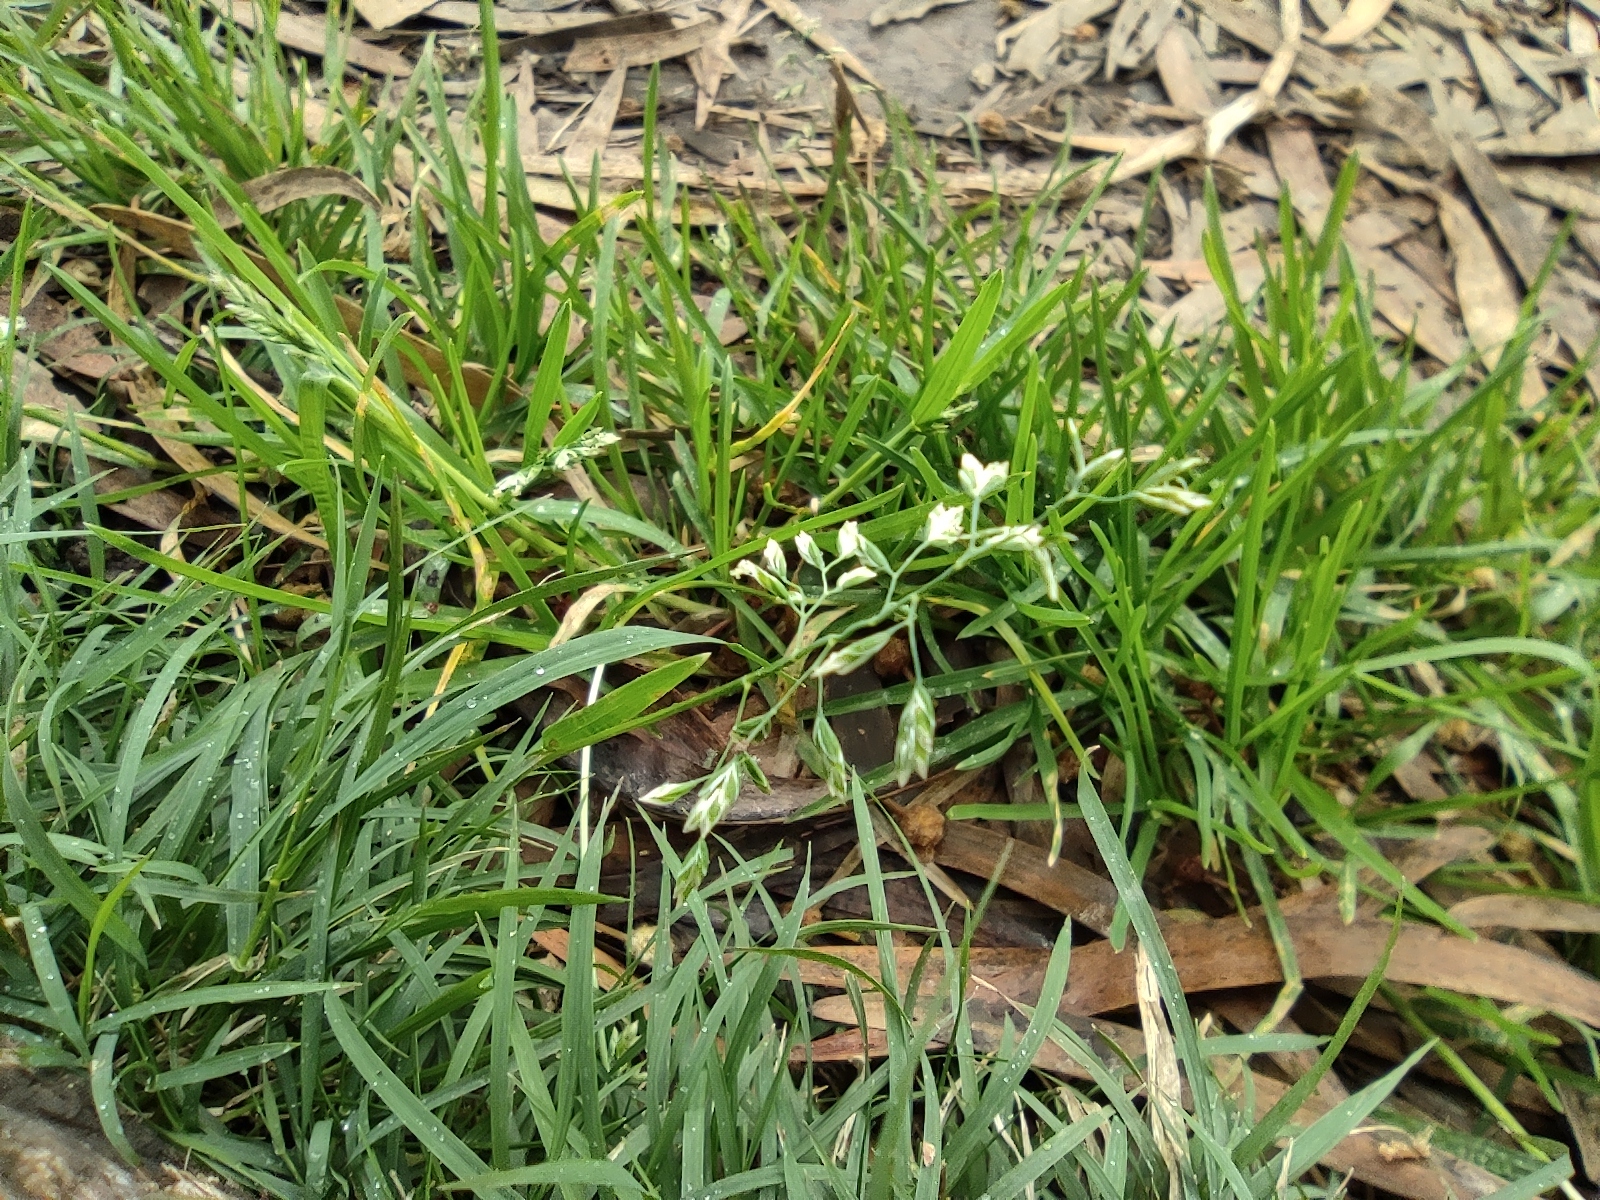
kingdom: Plantae
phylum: Tracheophyta
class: Liliopsida
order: Poales
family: Poaceae
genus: Poa
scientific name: Poa annua
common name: Annual bluegrass
